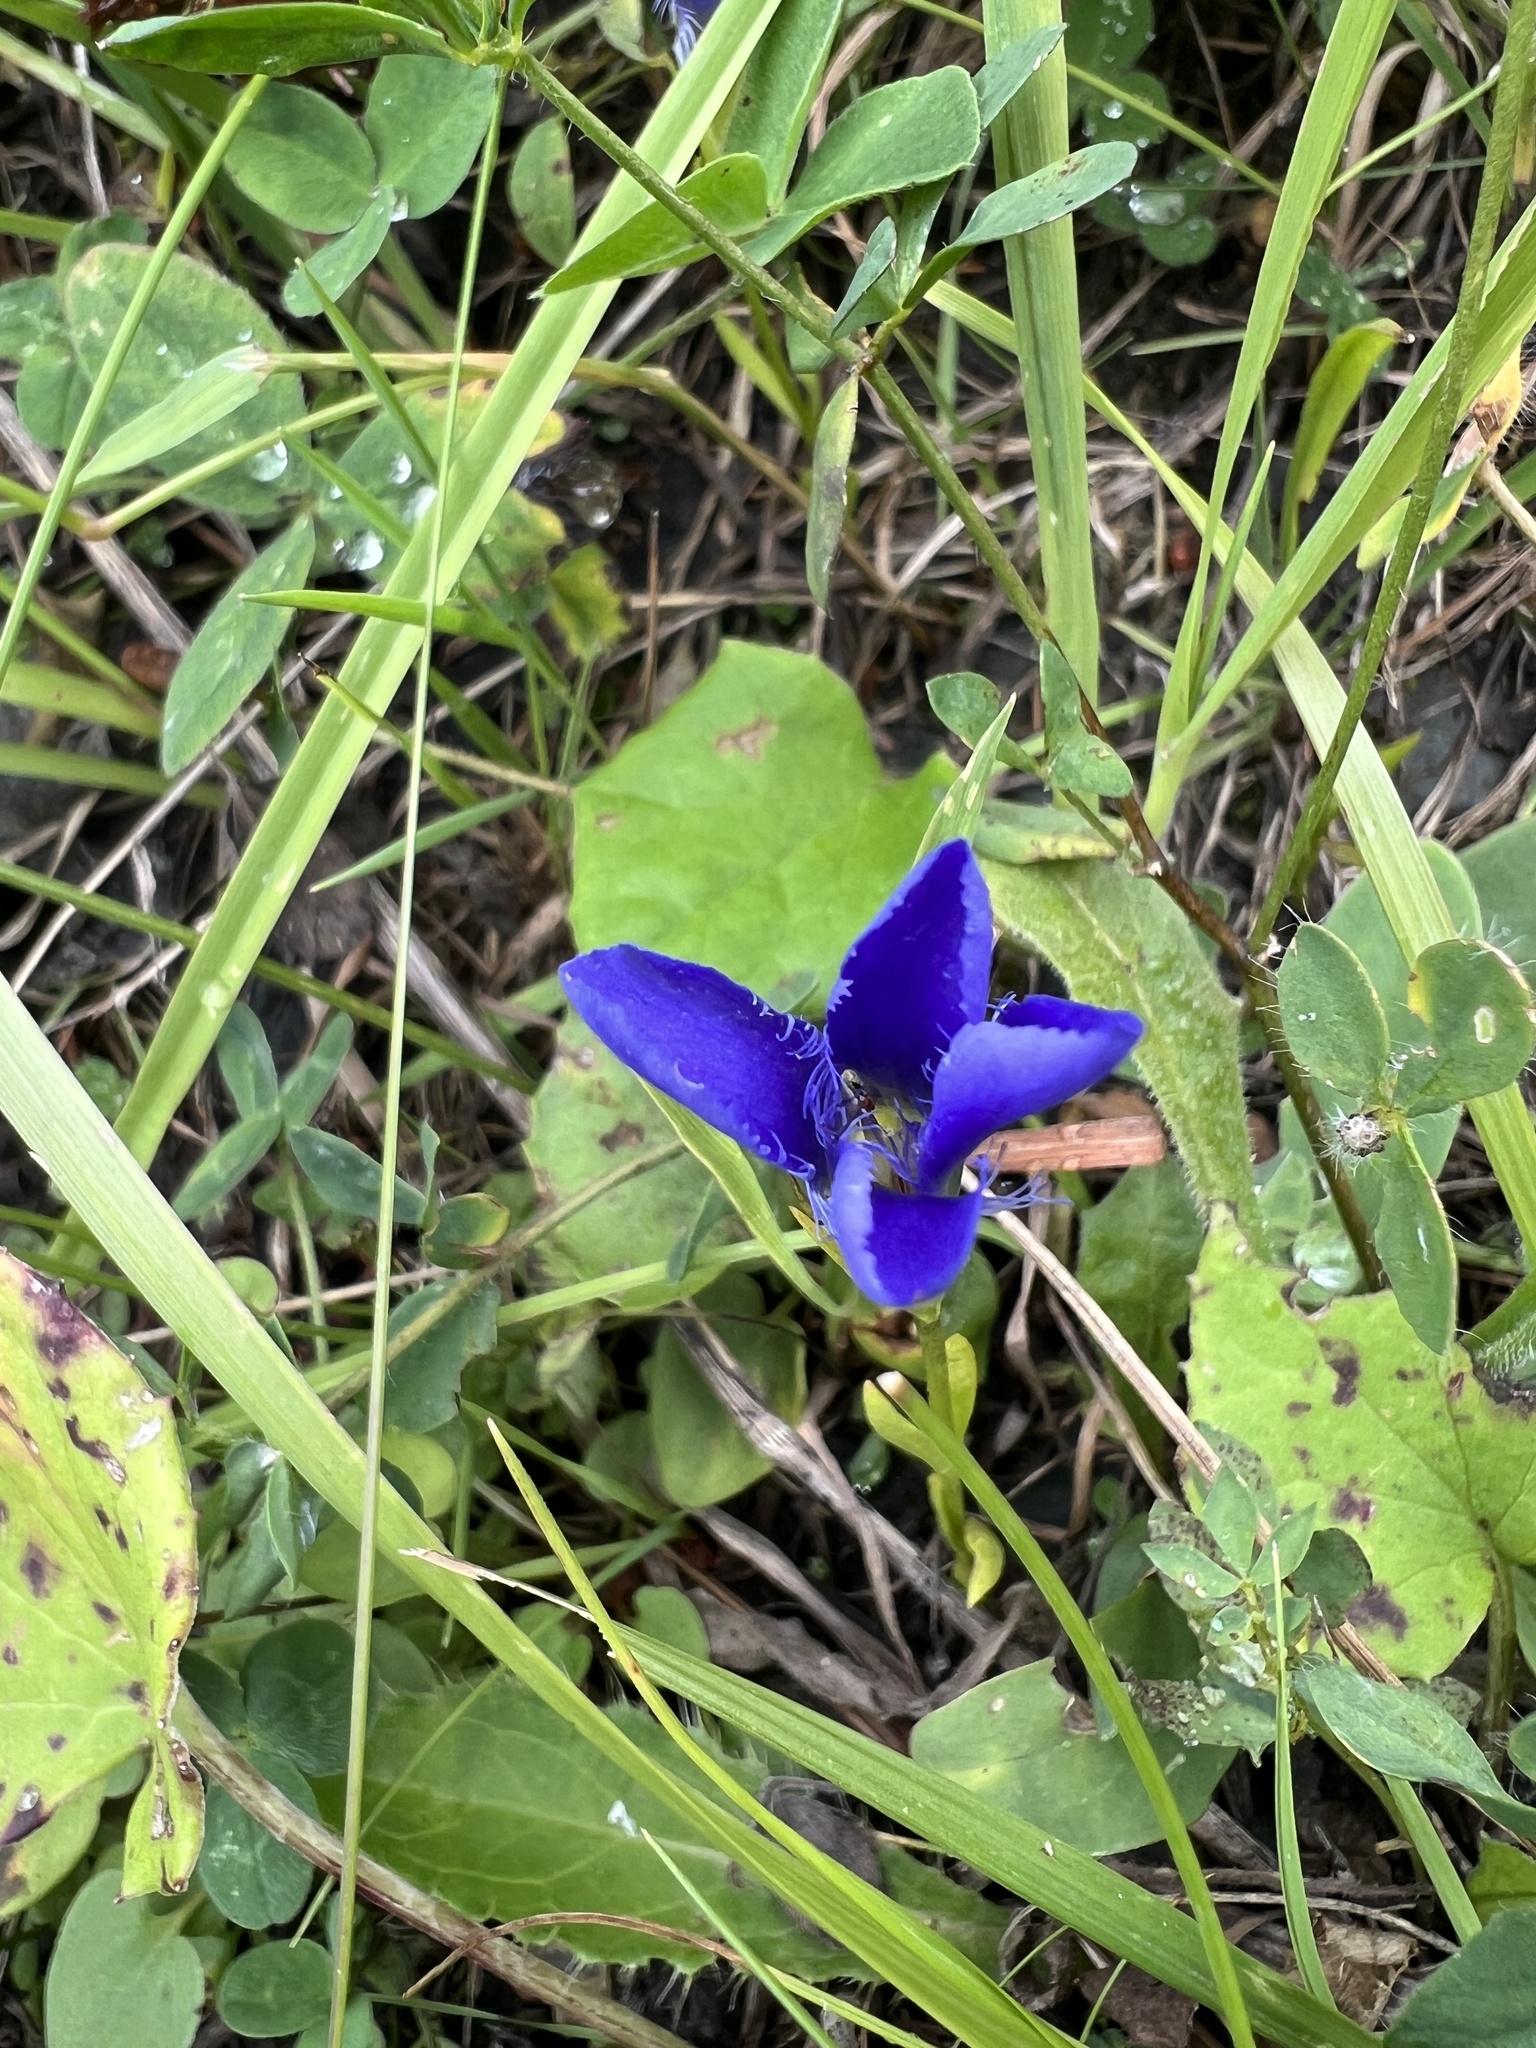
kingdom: Plantae
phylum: Tracheophyta
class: Magnoliopsida
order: Gentianales
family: Gentianaceae
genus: Gentianopsis
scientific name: Gentianopsis ciliata
